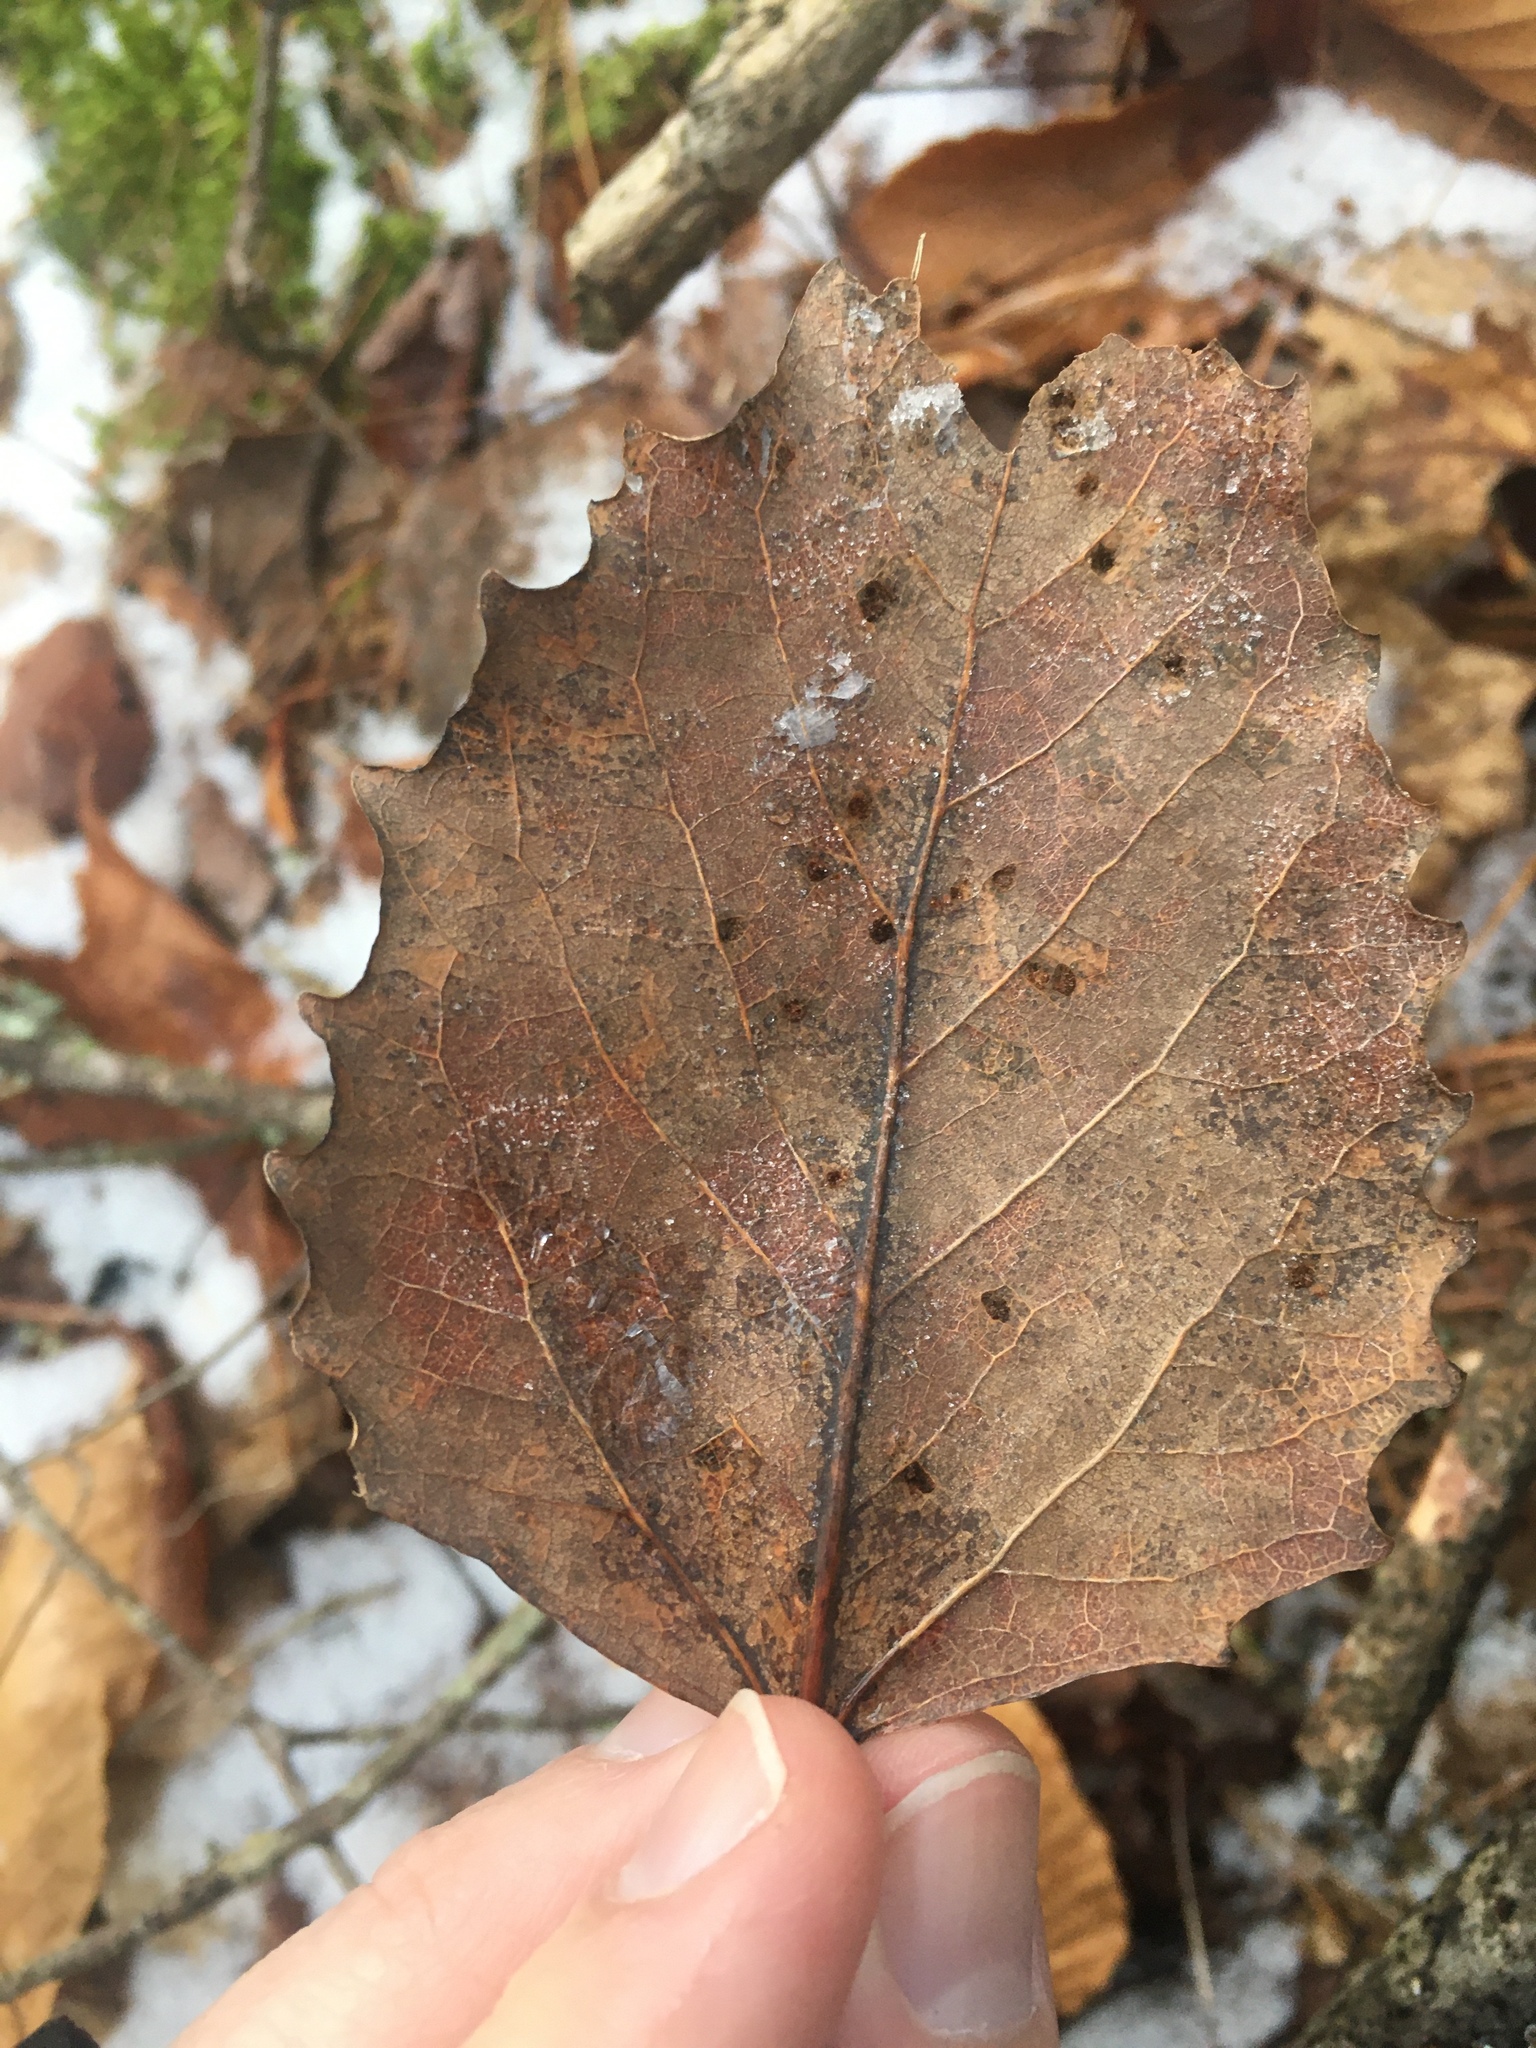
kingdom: Plantae
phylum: Tracheophyta
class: Magnoliopsida
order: Malpighiales
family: Salicaceae
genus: Populus
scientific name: Populus grandidentata
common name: Bigtooth aspen
